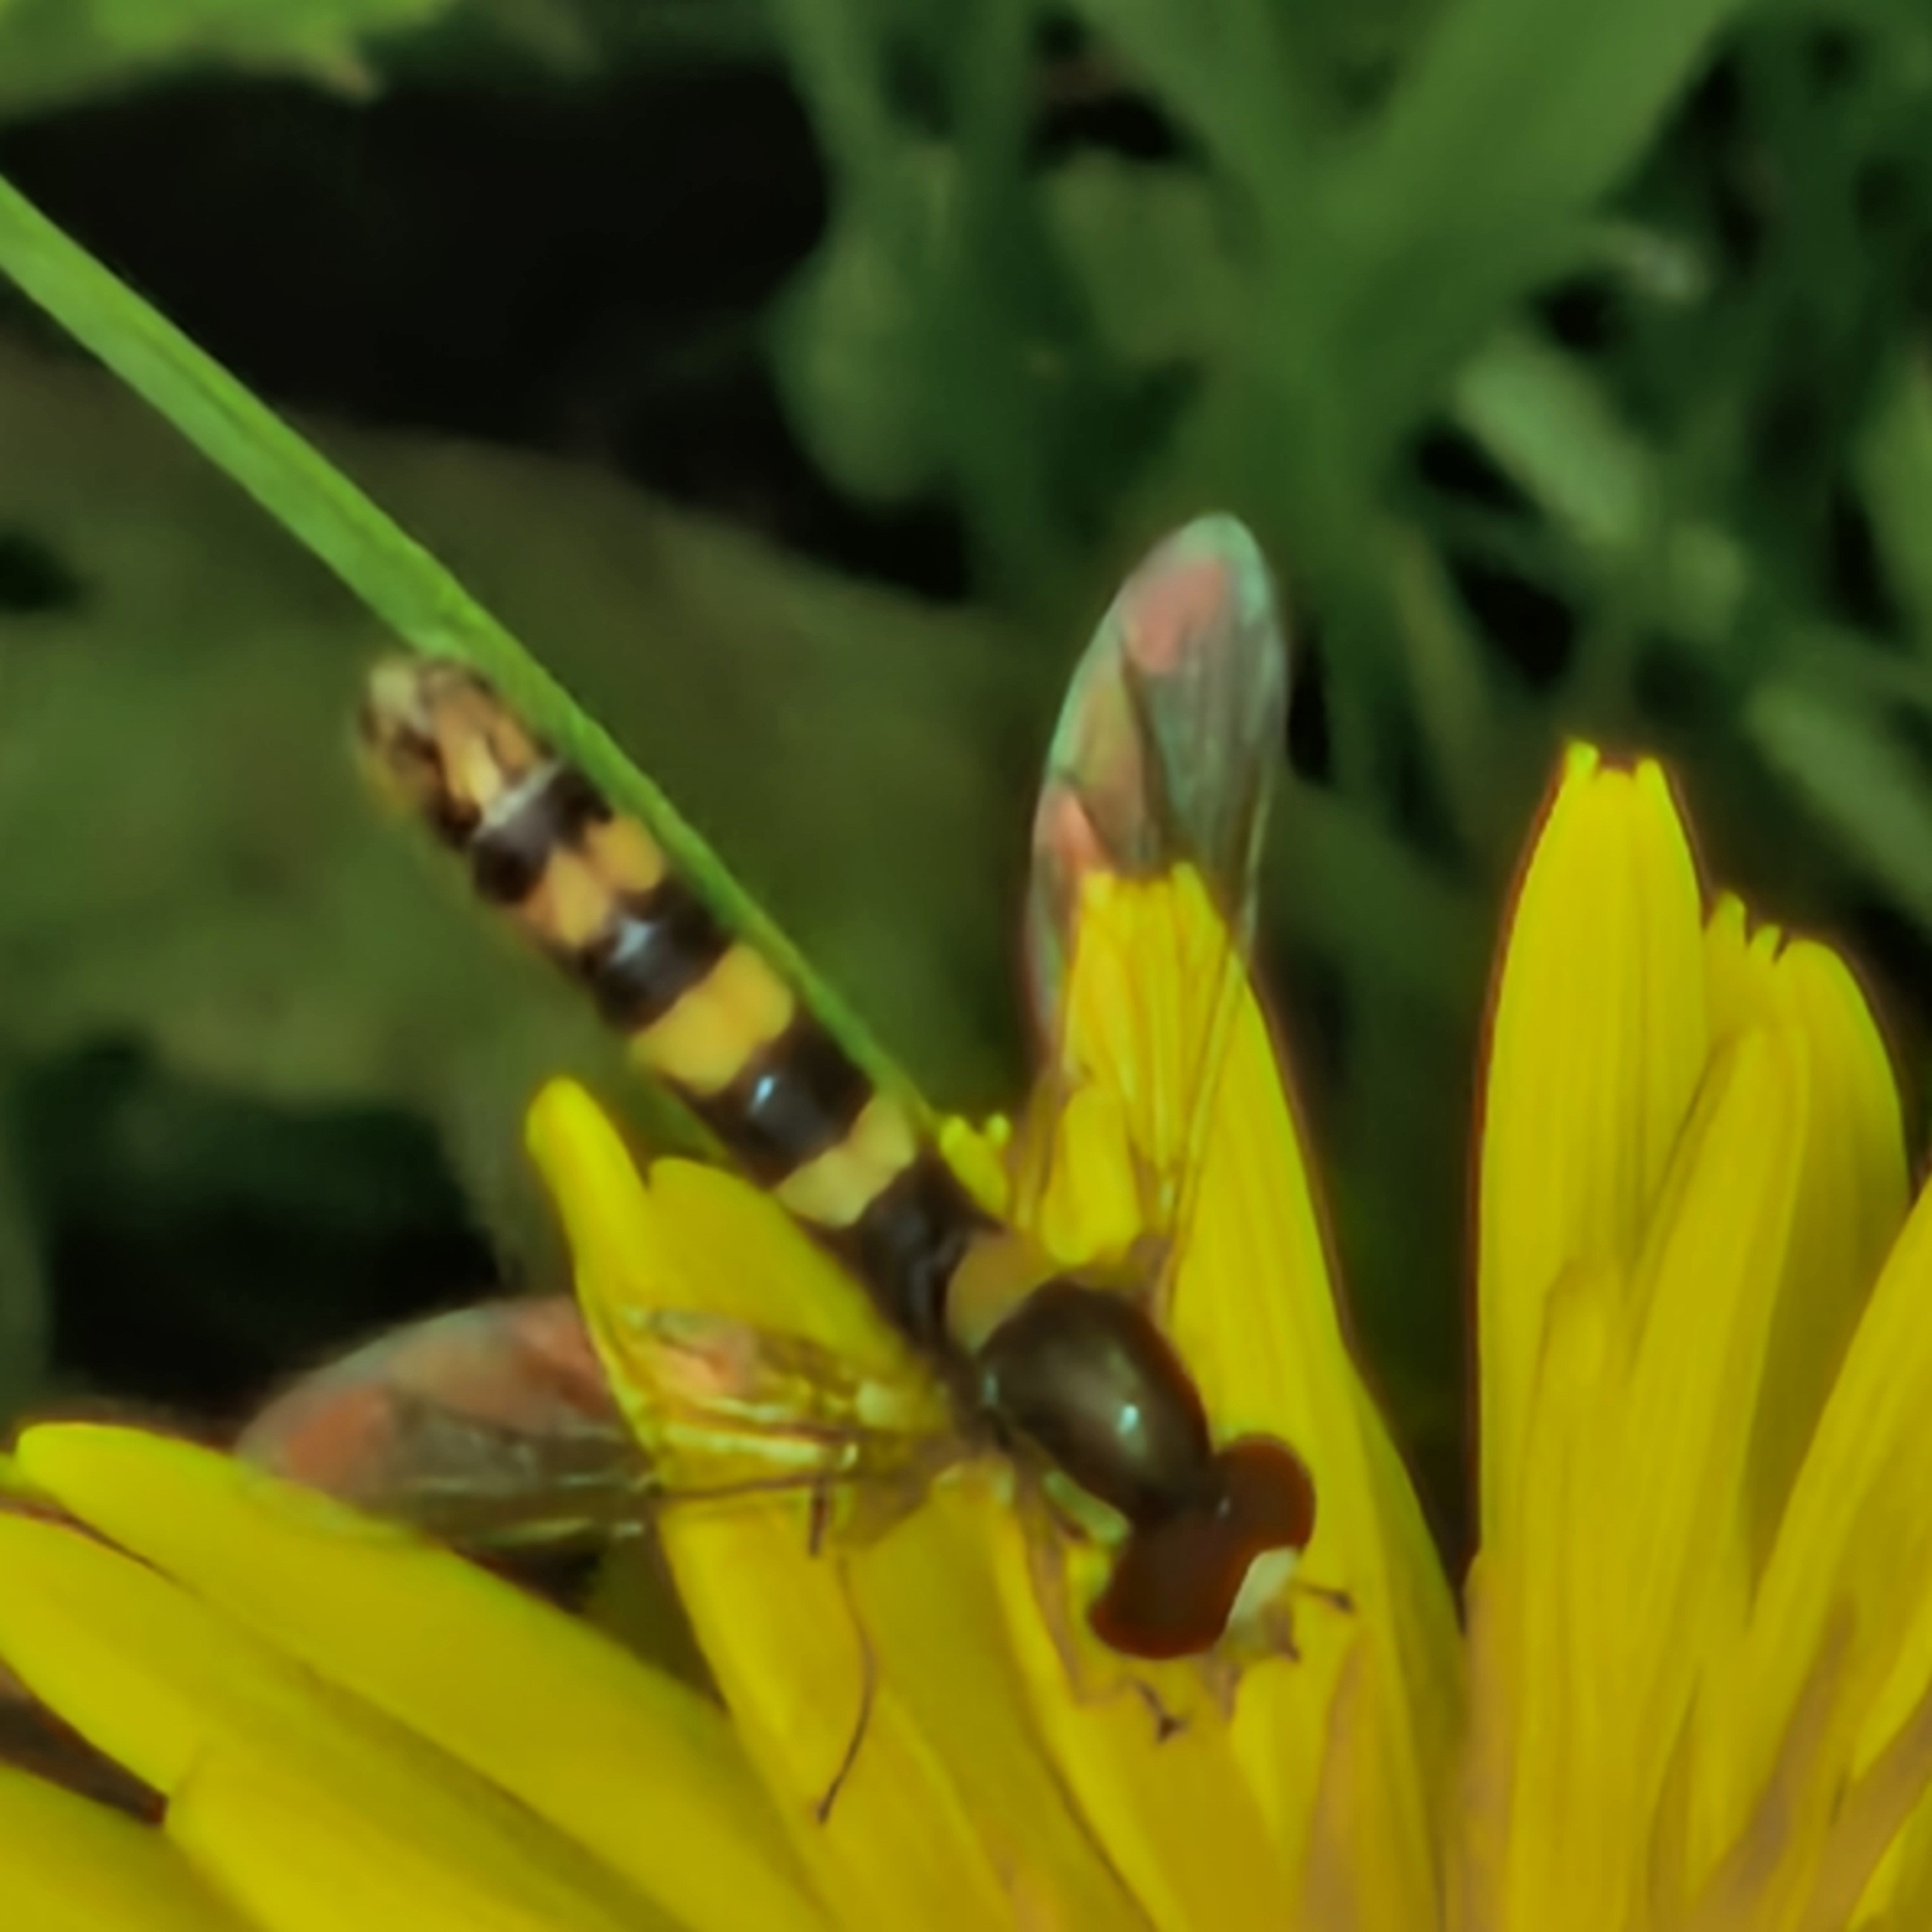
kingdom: Animalia
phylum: Arthropoda
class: Insecta
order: Diptera
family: Syrphidae
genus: Sphaerophoria
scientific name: Sphaerophoria scripta
